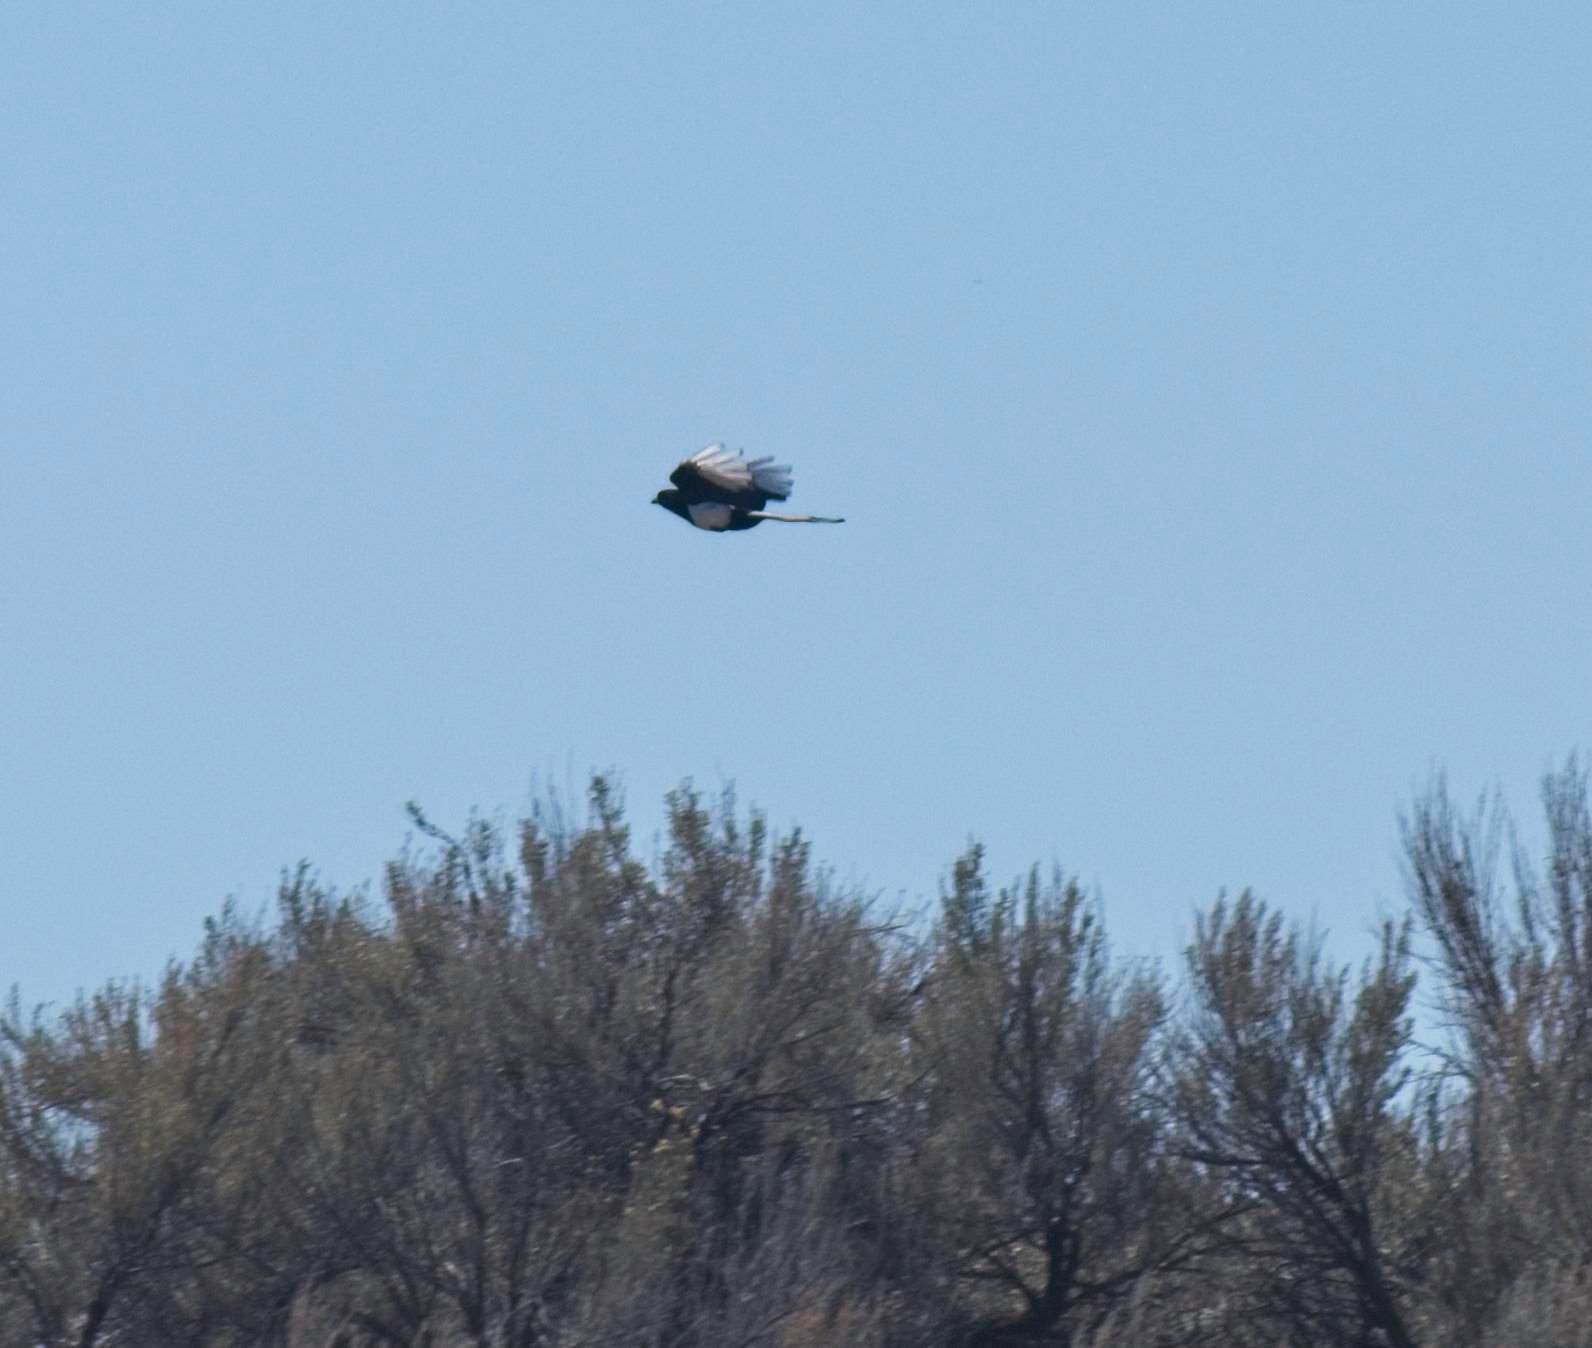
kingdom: Animalia
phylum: Chordata
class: Aves
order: Passeriformes
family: Corvidae
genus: Pica
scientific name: Pica hudsonia
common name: Black-billed magpie
